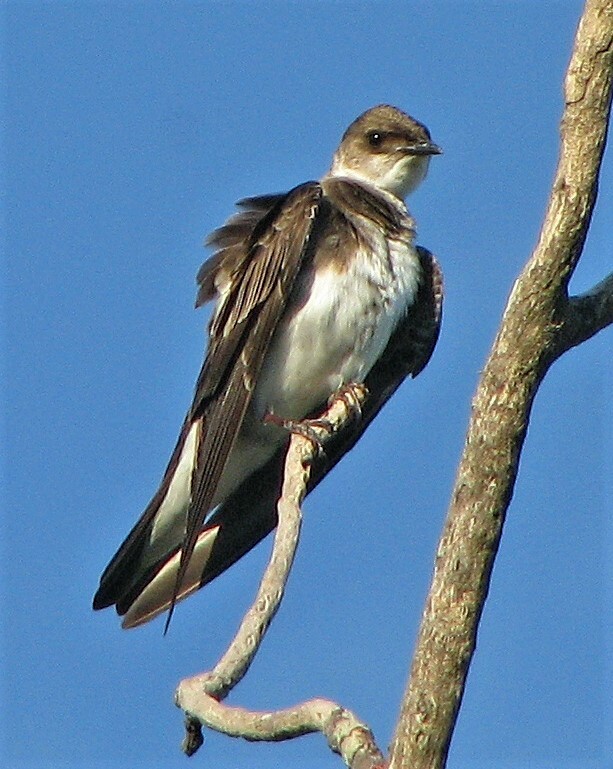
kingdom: Animalia
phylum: Chordata
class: Aves
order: Passeriformes
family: Hirundinidae
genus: Progne
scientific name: Progne tapera
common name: Brown-chested martin
